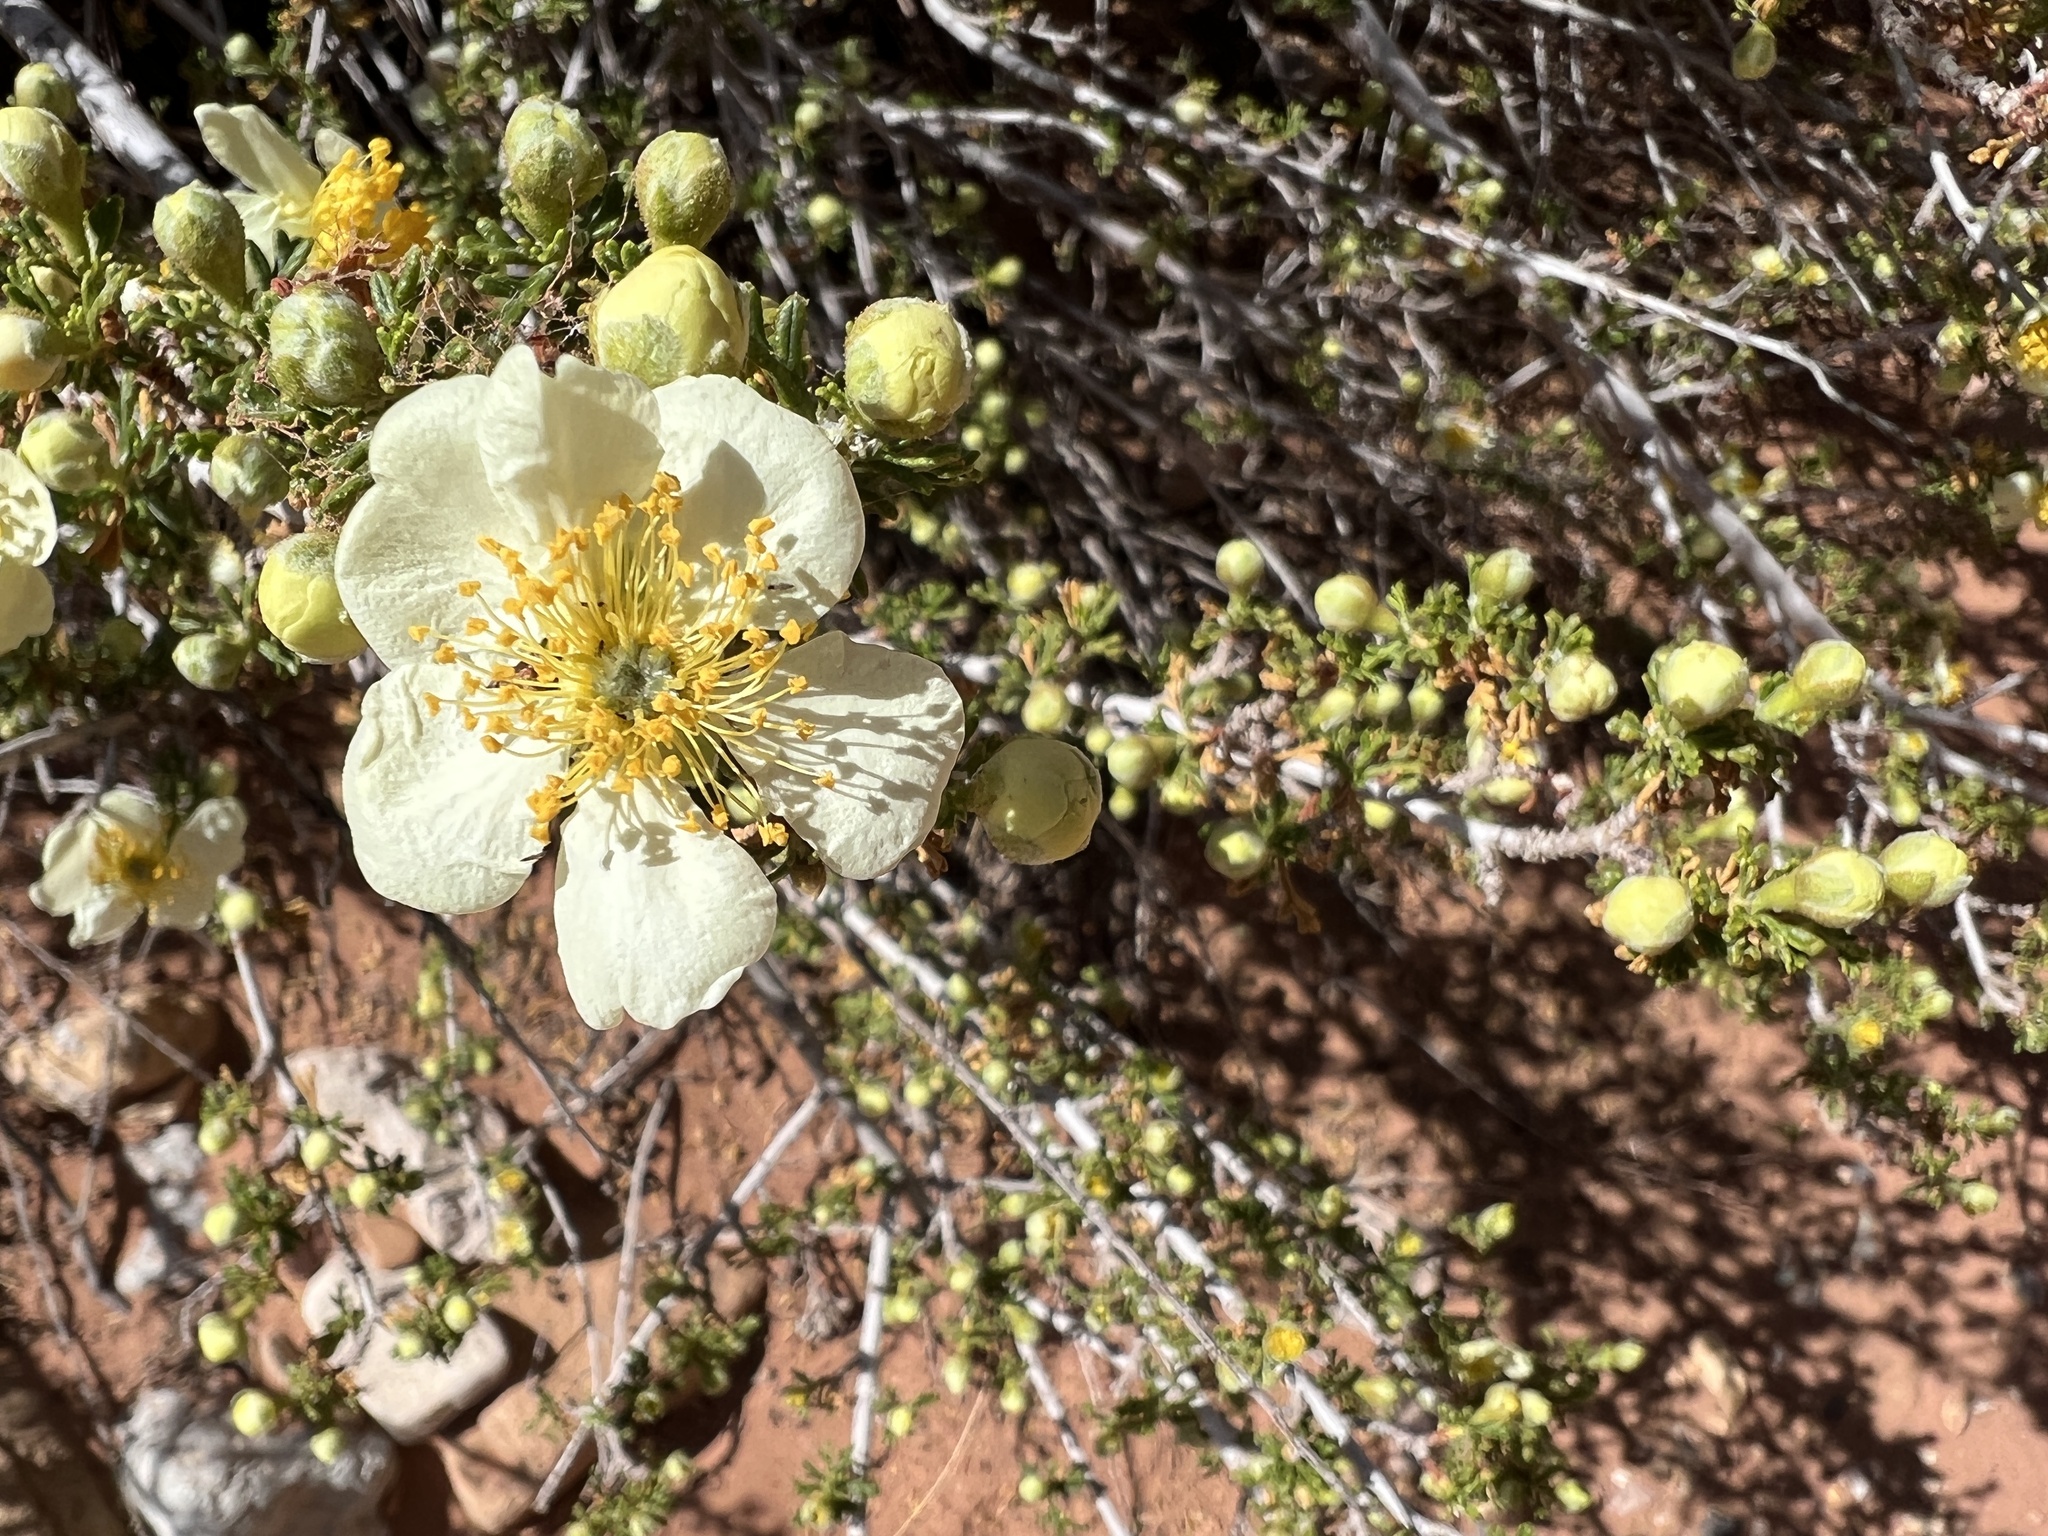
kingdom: Plantae
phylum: Tracheophyta
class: Magnoliopsida
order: Rosales
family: Rosaceae
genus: Purshia
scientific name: Purshia stansburiana
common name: Stansbury's cliffrose
